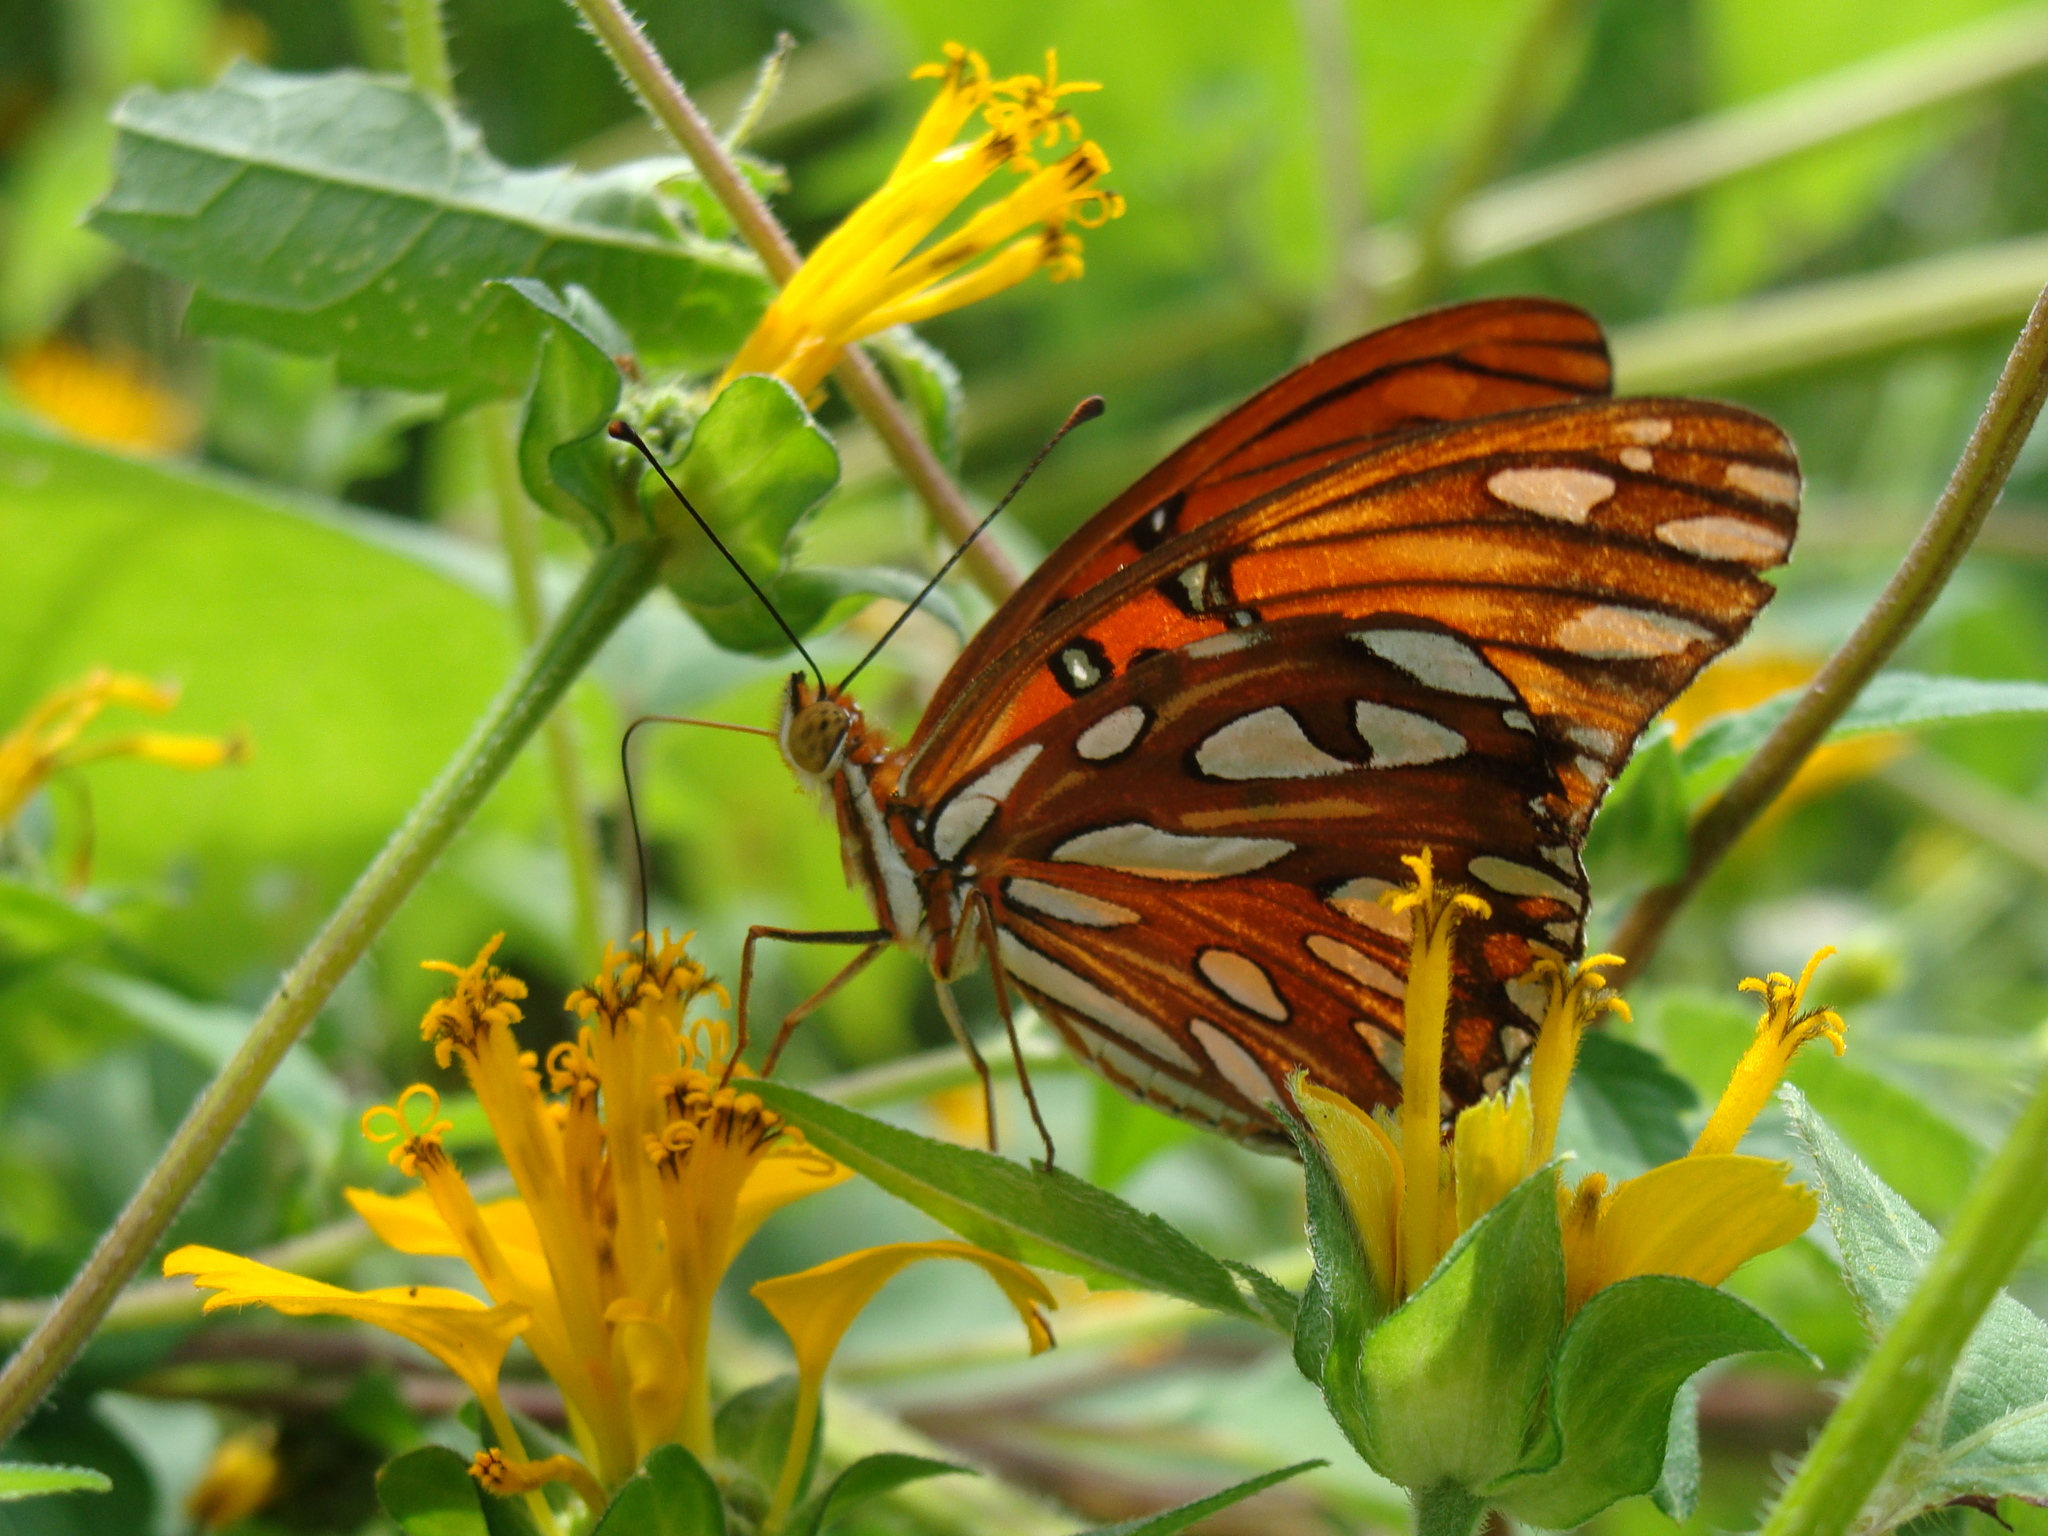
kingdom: Animalia
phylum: Arthropoda
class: Insecta
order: Lepidoptera
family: Nymphalidae
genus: Dione
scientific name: Dione vanillae
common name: Gulf fritillary
